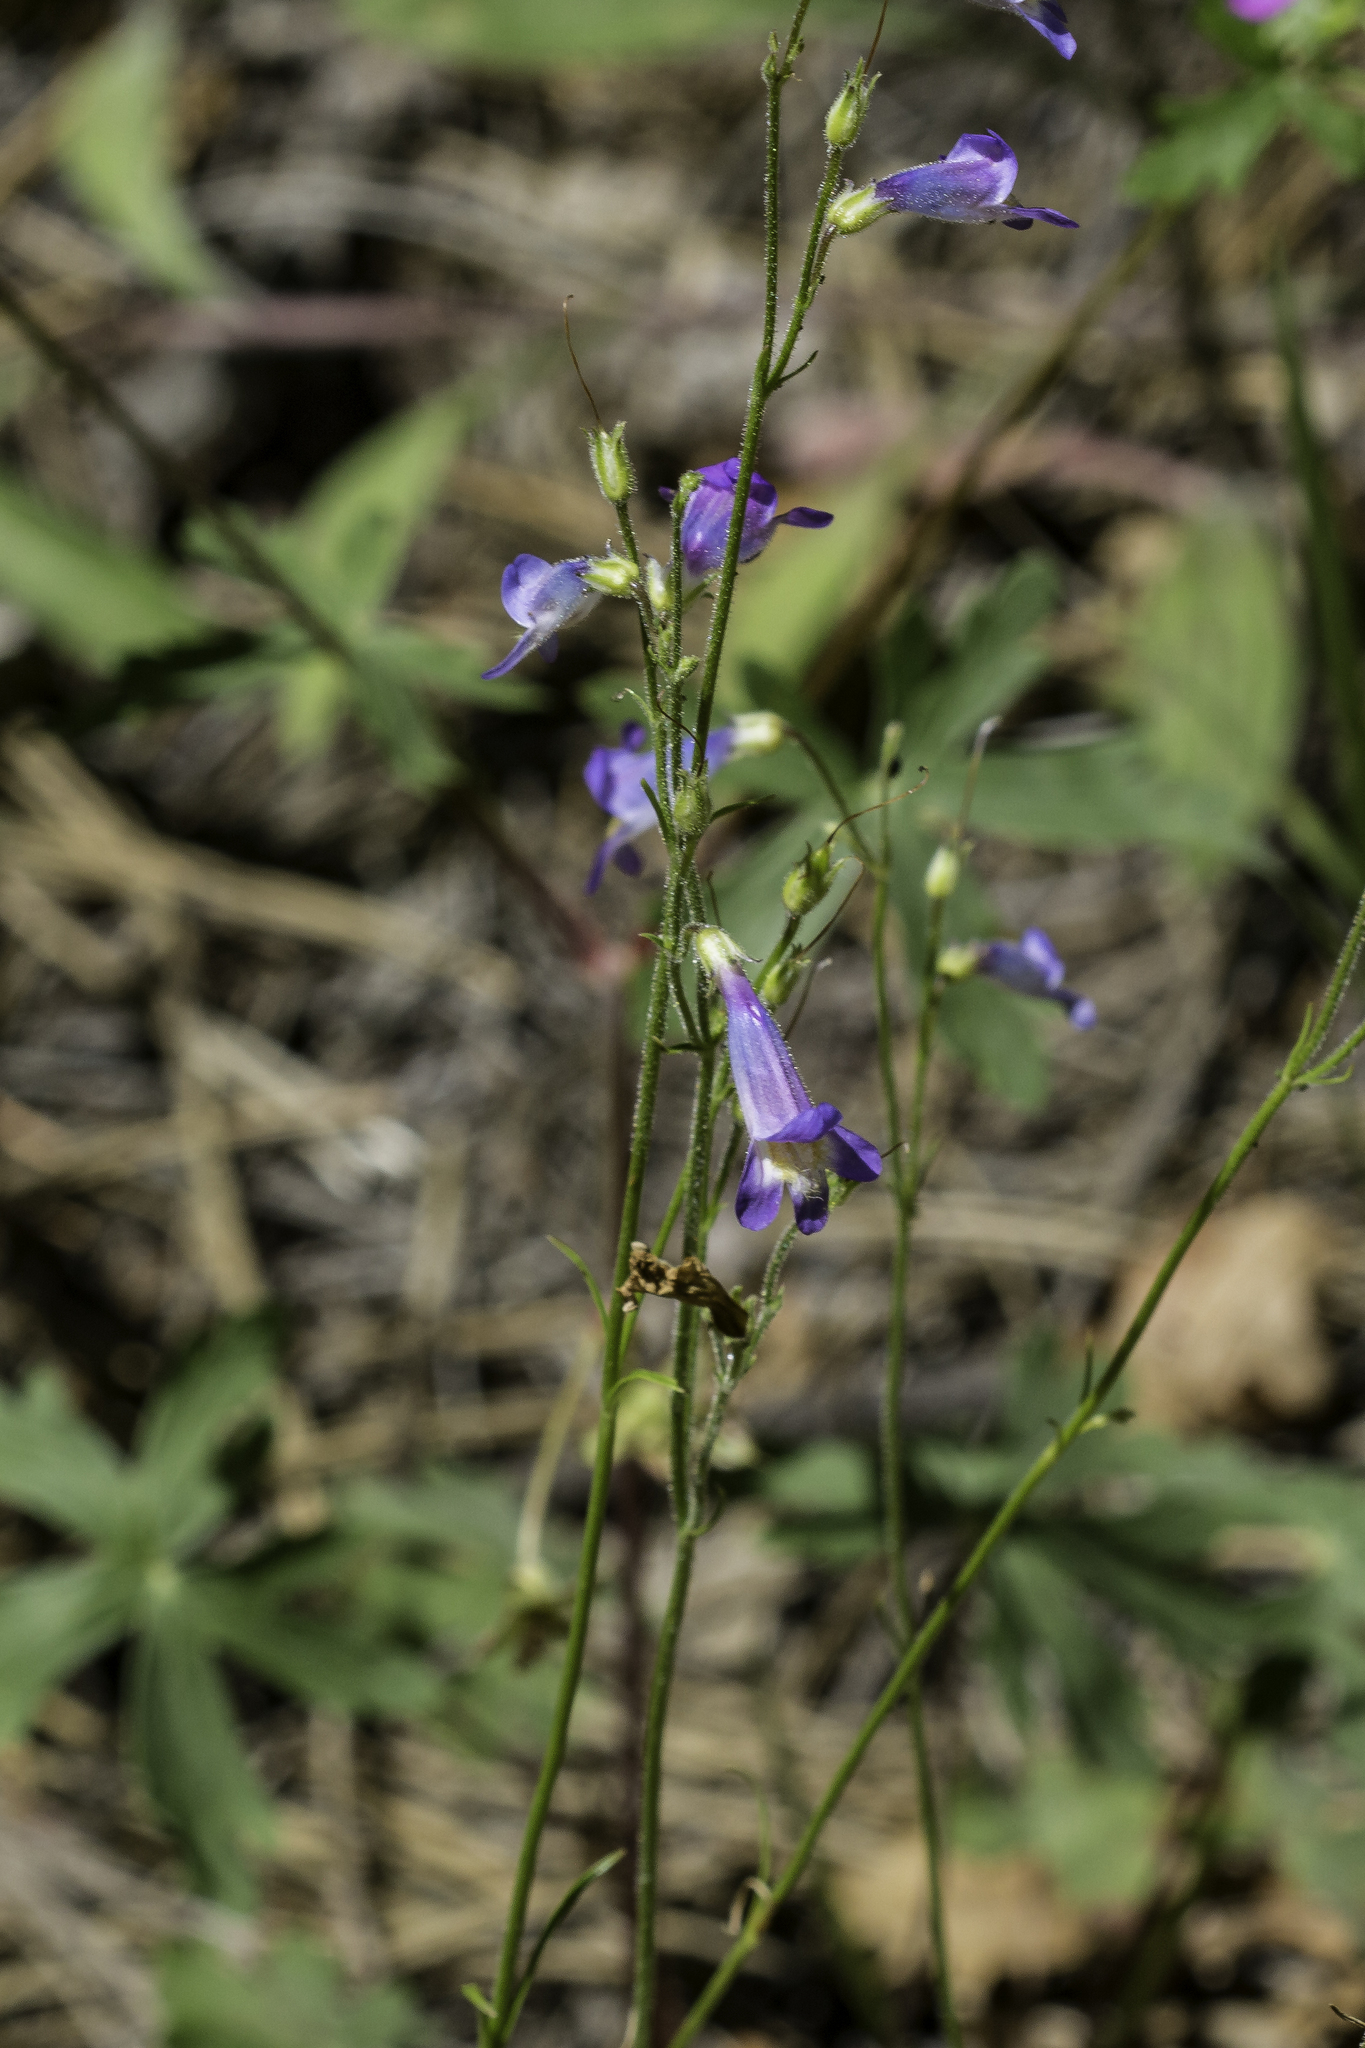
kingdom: Plantae
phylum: Tracheophyta
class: Magnoliopsida
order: Lamiales
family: Plantaginaceae
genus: Penstemon
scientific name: Penstemon griffinii
